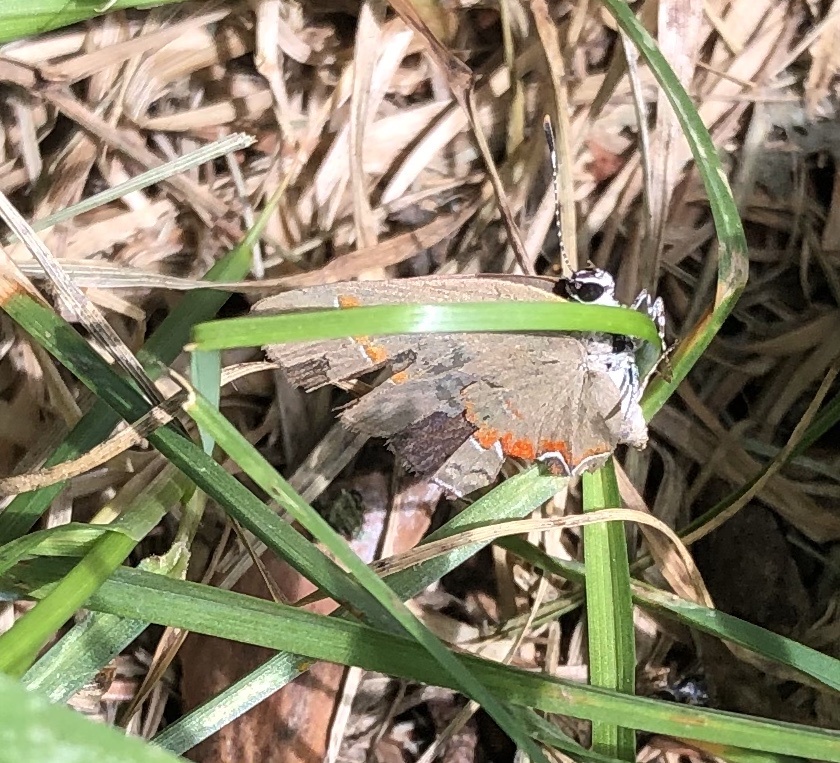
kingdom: Animalia
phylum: Arthropoda
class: Insecta
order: Lepidoptera
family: Lycaenidae
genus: Calycopis
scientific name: Calycopis cecrops
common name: Red-banded hairstreak
